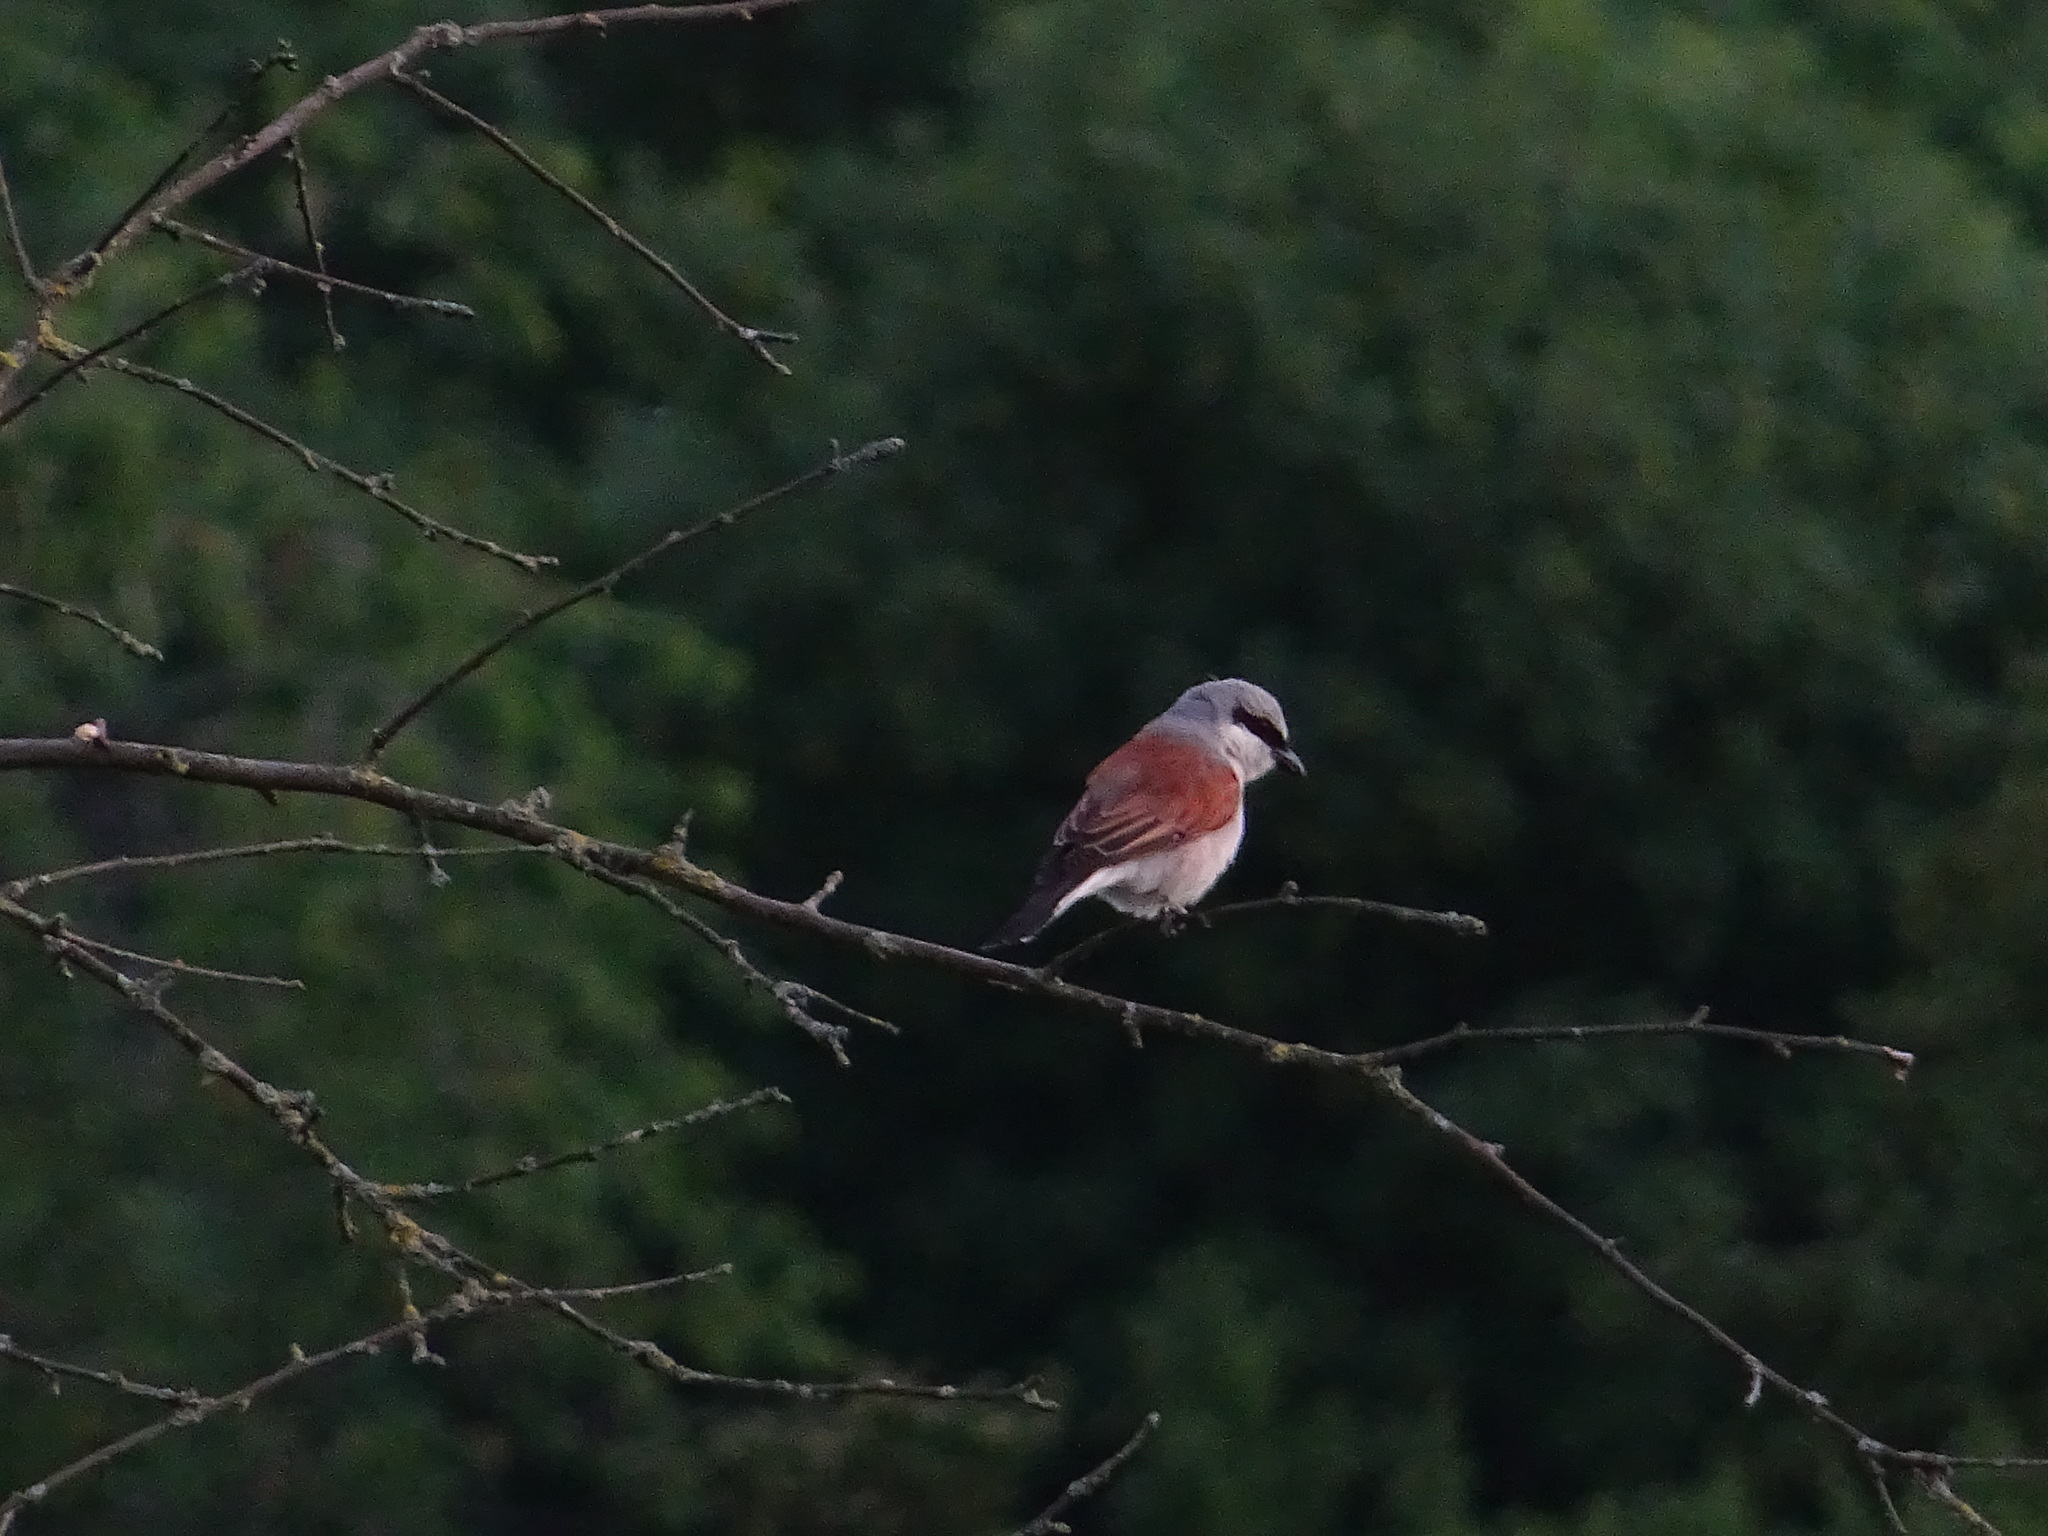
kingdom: Animalia
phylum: Chordata
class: Aves
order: Passeriformes
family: Laniidae
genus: Lanius
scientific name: Lanius collurio
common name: Red-backed shrike
